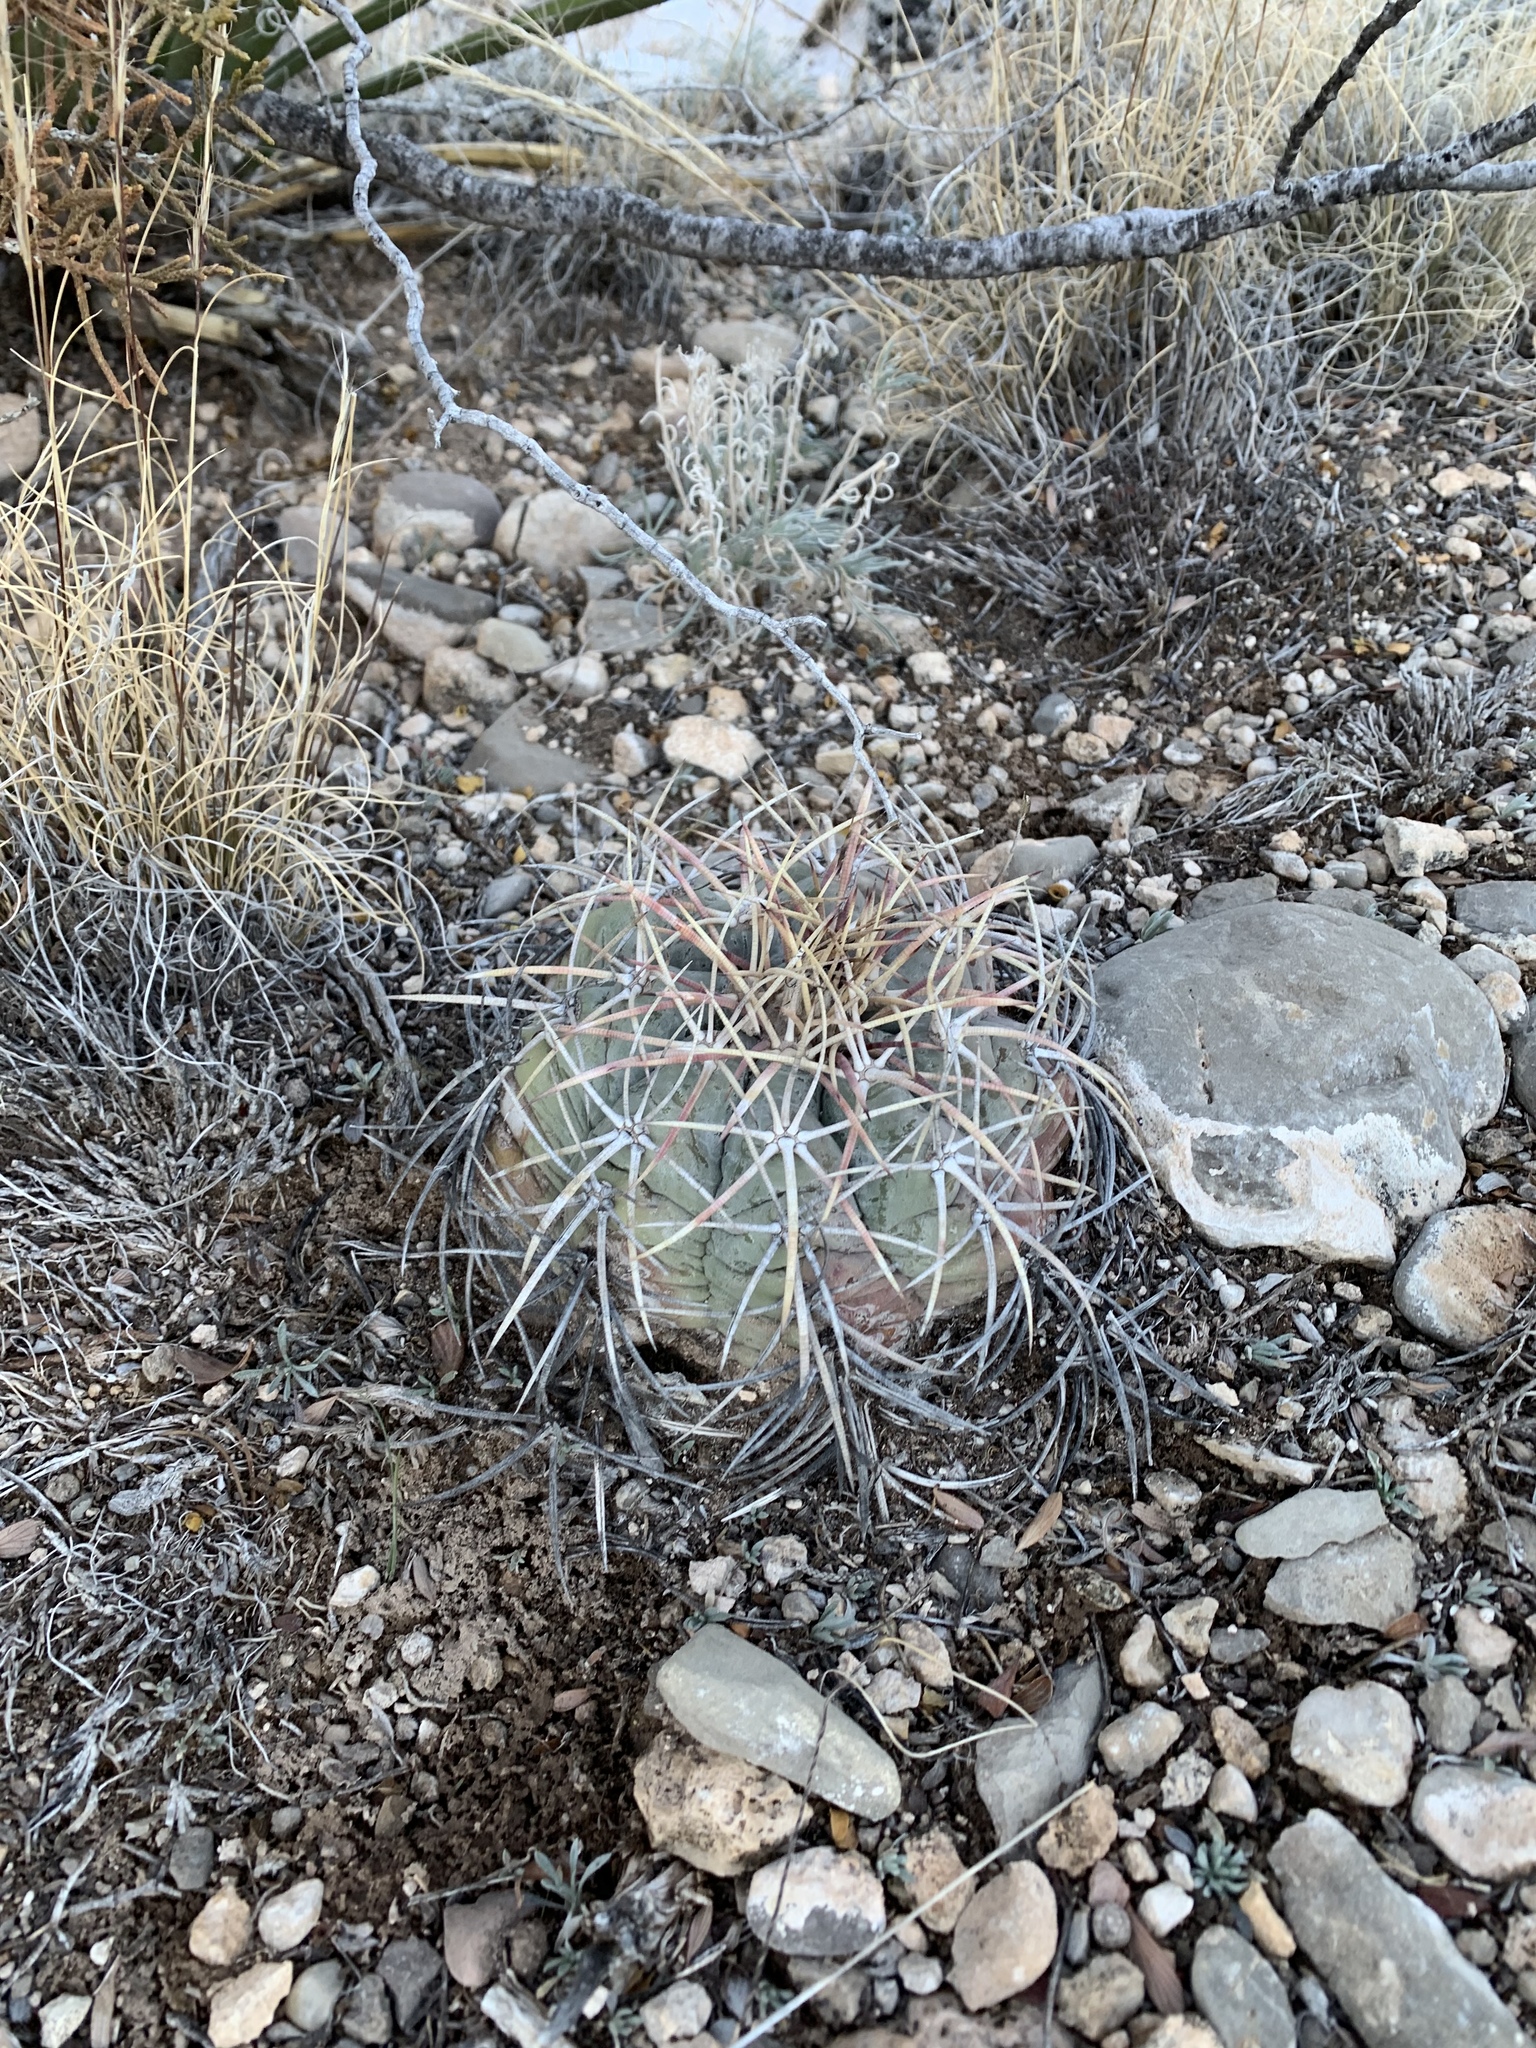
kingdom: Plantae
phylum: Tracheophyta
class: Magnoliopsida
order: Caryophyllales
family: Cactaceae
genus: Echinocactus
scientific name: Echinocactus horizonthalonius
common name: Devilshead
